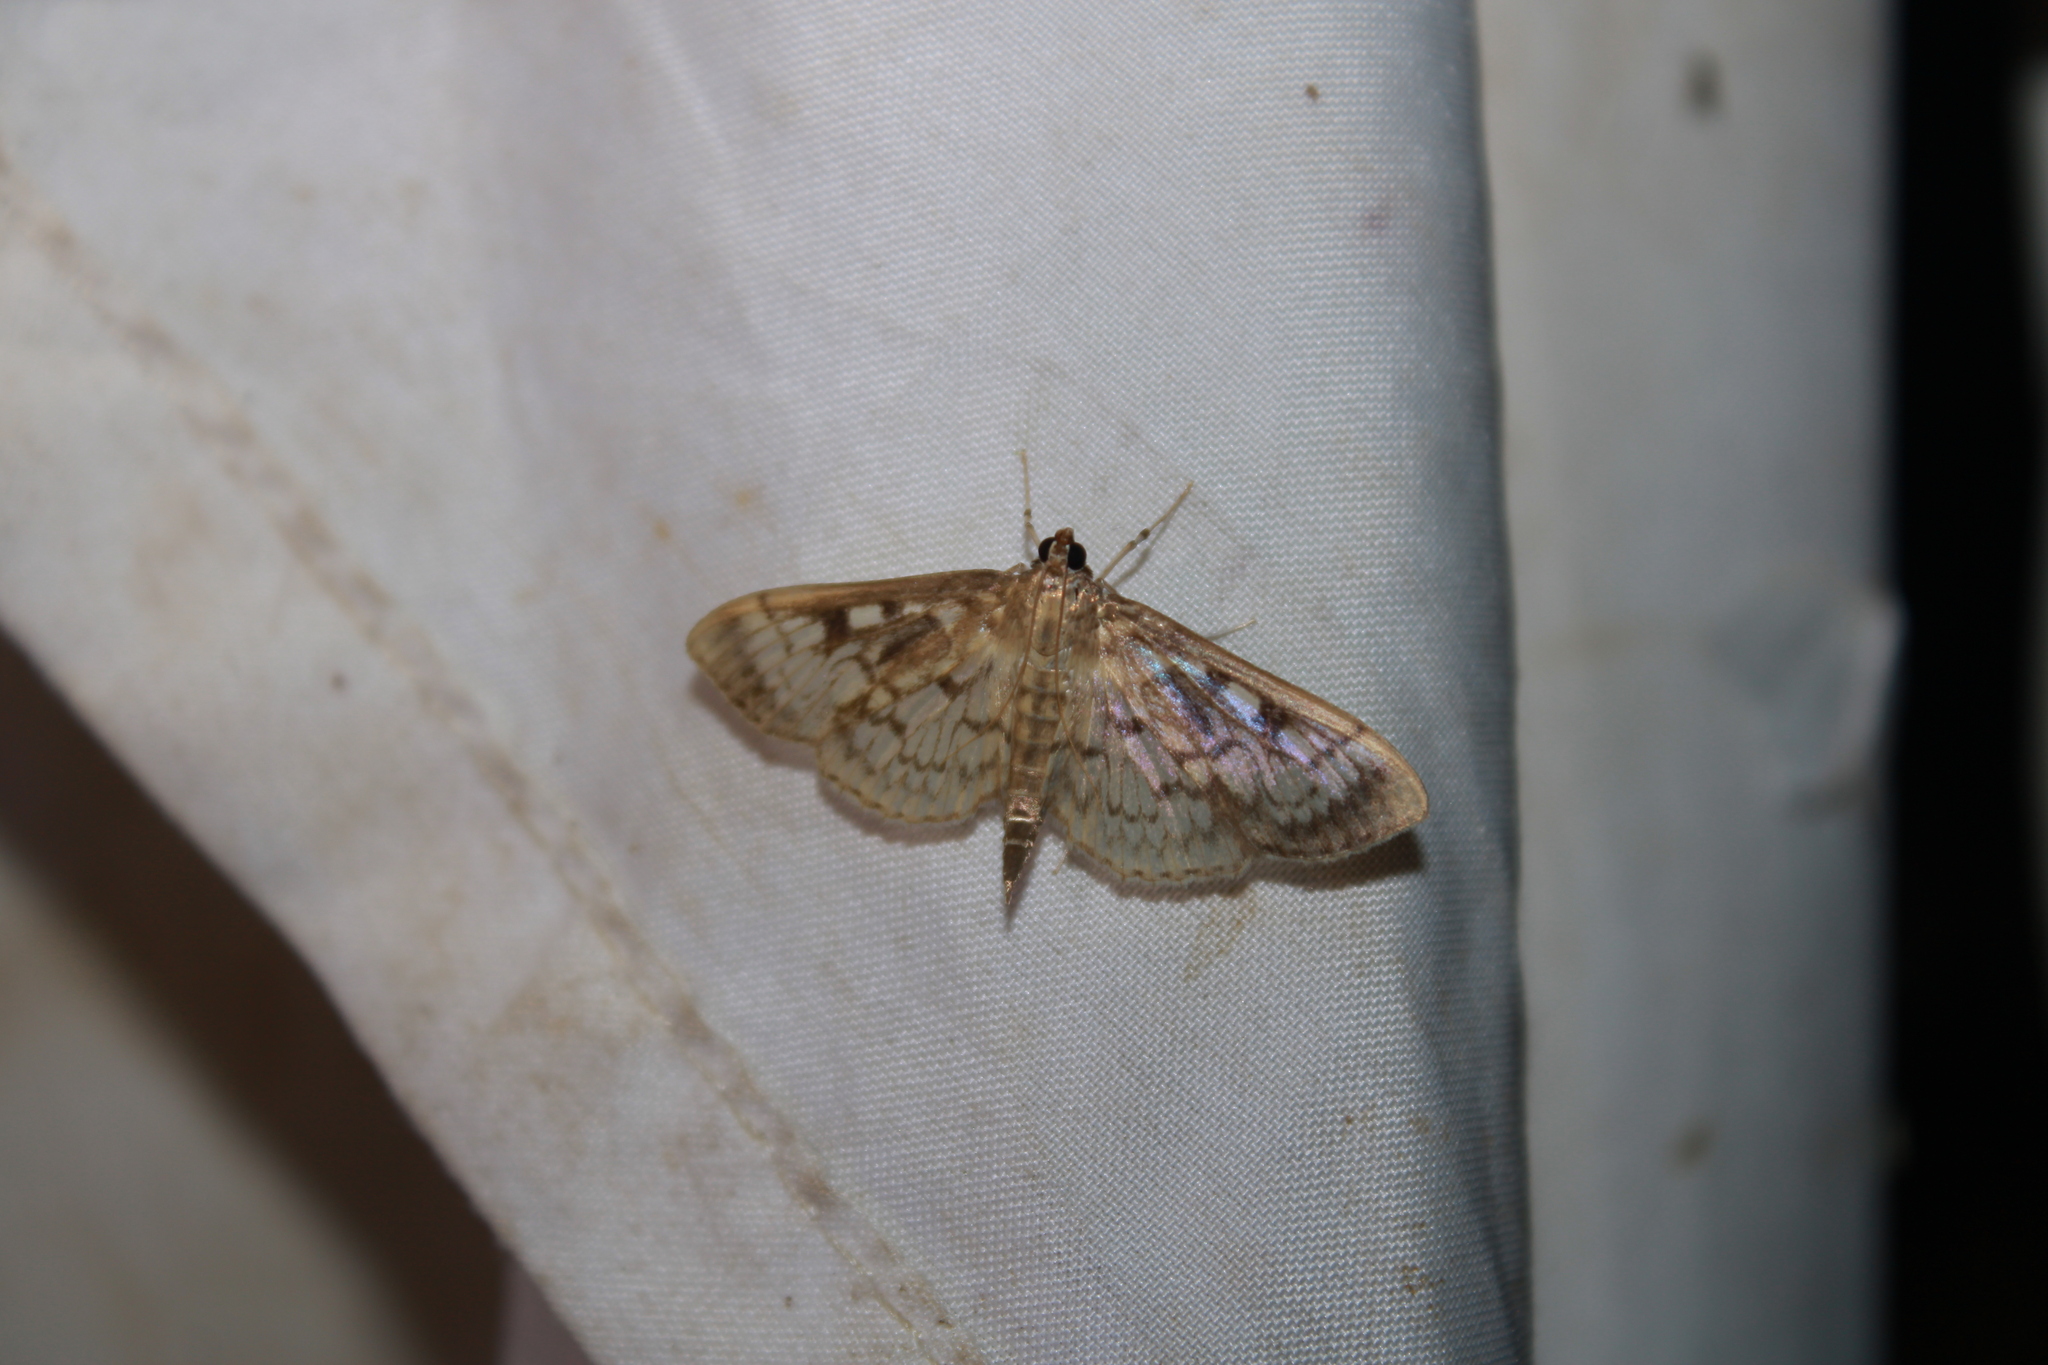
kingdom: Animalia
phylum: Arthropoda
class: Insecta
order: Lepidoptera
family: Crambidae
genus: Herpetogramma
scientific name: Herpetogramma thestealis
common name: Zigzag herpetogramma moth
